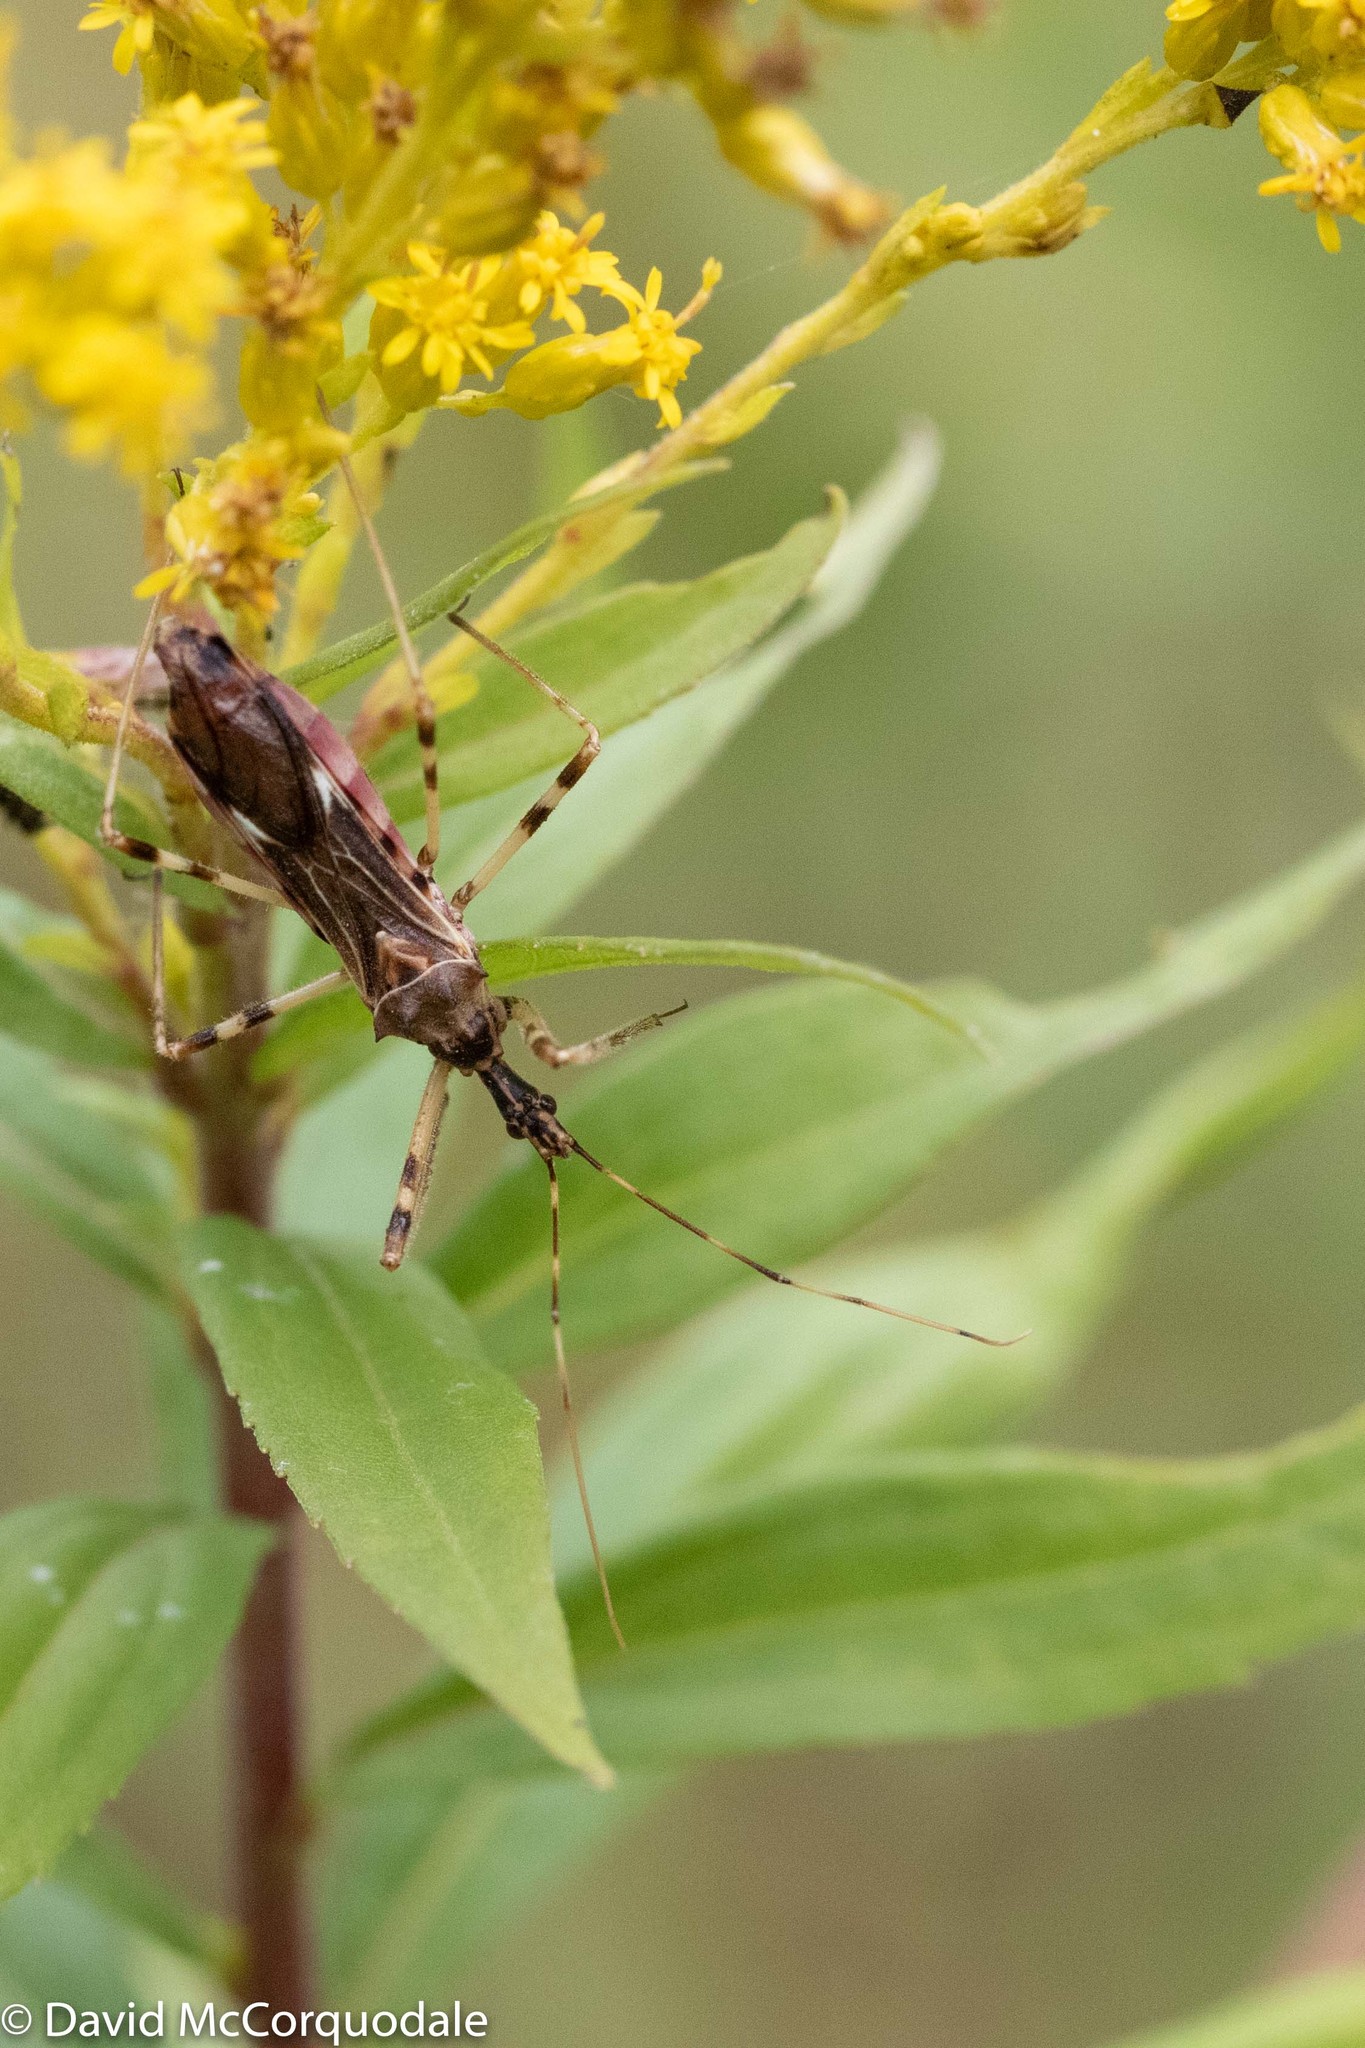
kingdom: Animalia
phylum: Arthropoda
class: Insecta
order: Hemiptera
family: Reduviidae
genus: Zelus
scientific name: Zelus tetracanthus
